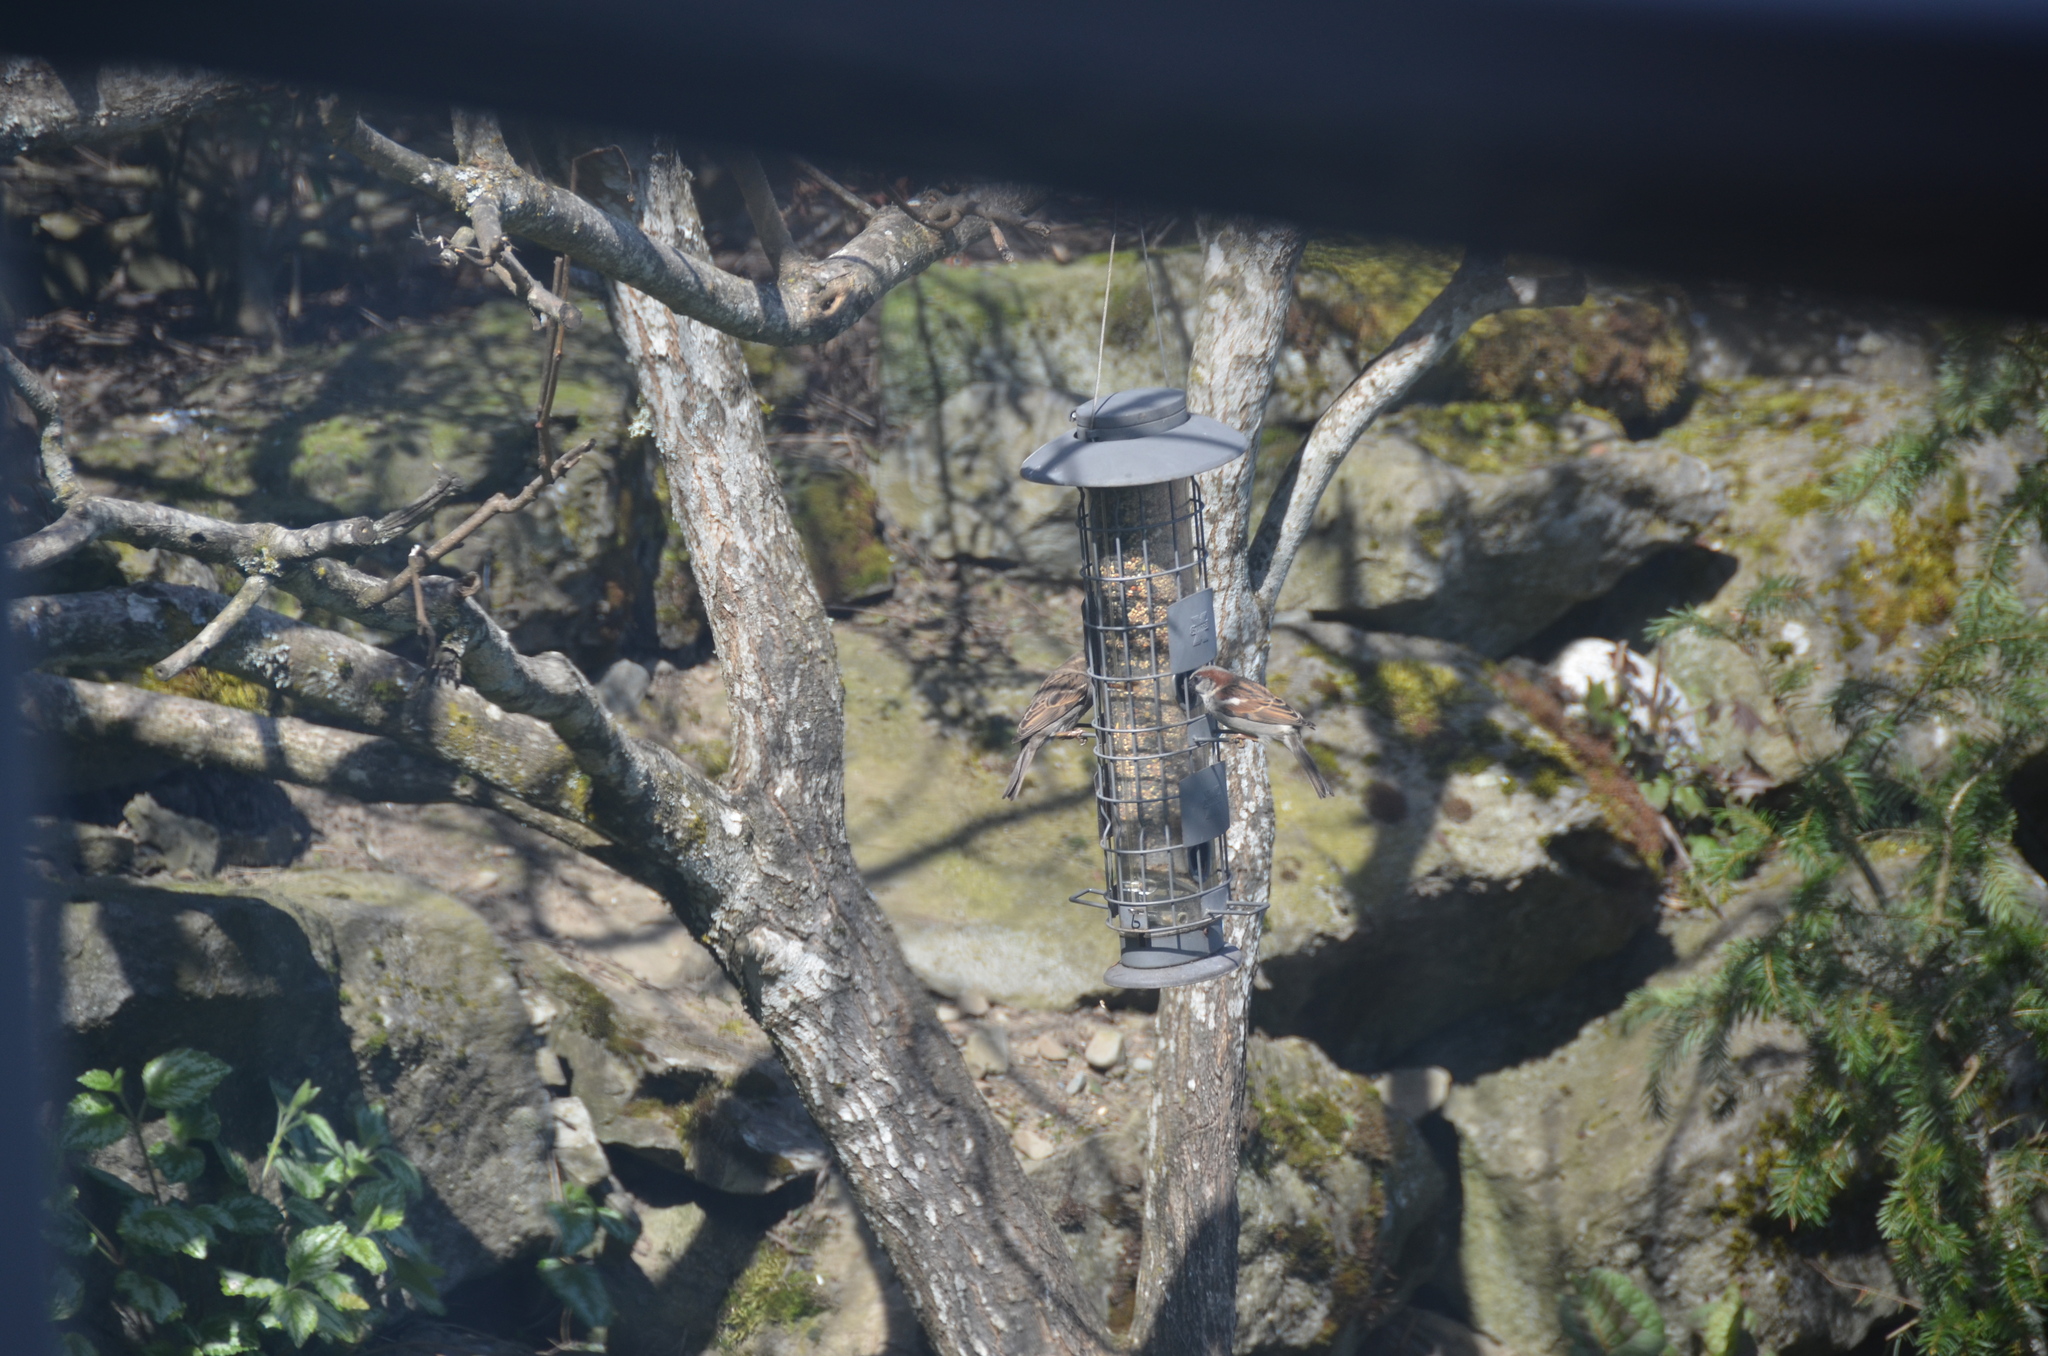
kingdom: Animalia
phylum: Chordata
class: Aves
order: Passeriformes
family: Passeridae
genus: Passer
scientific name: Passer domesticus
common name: House sparrow
